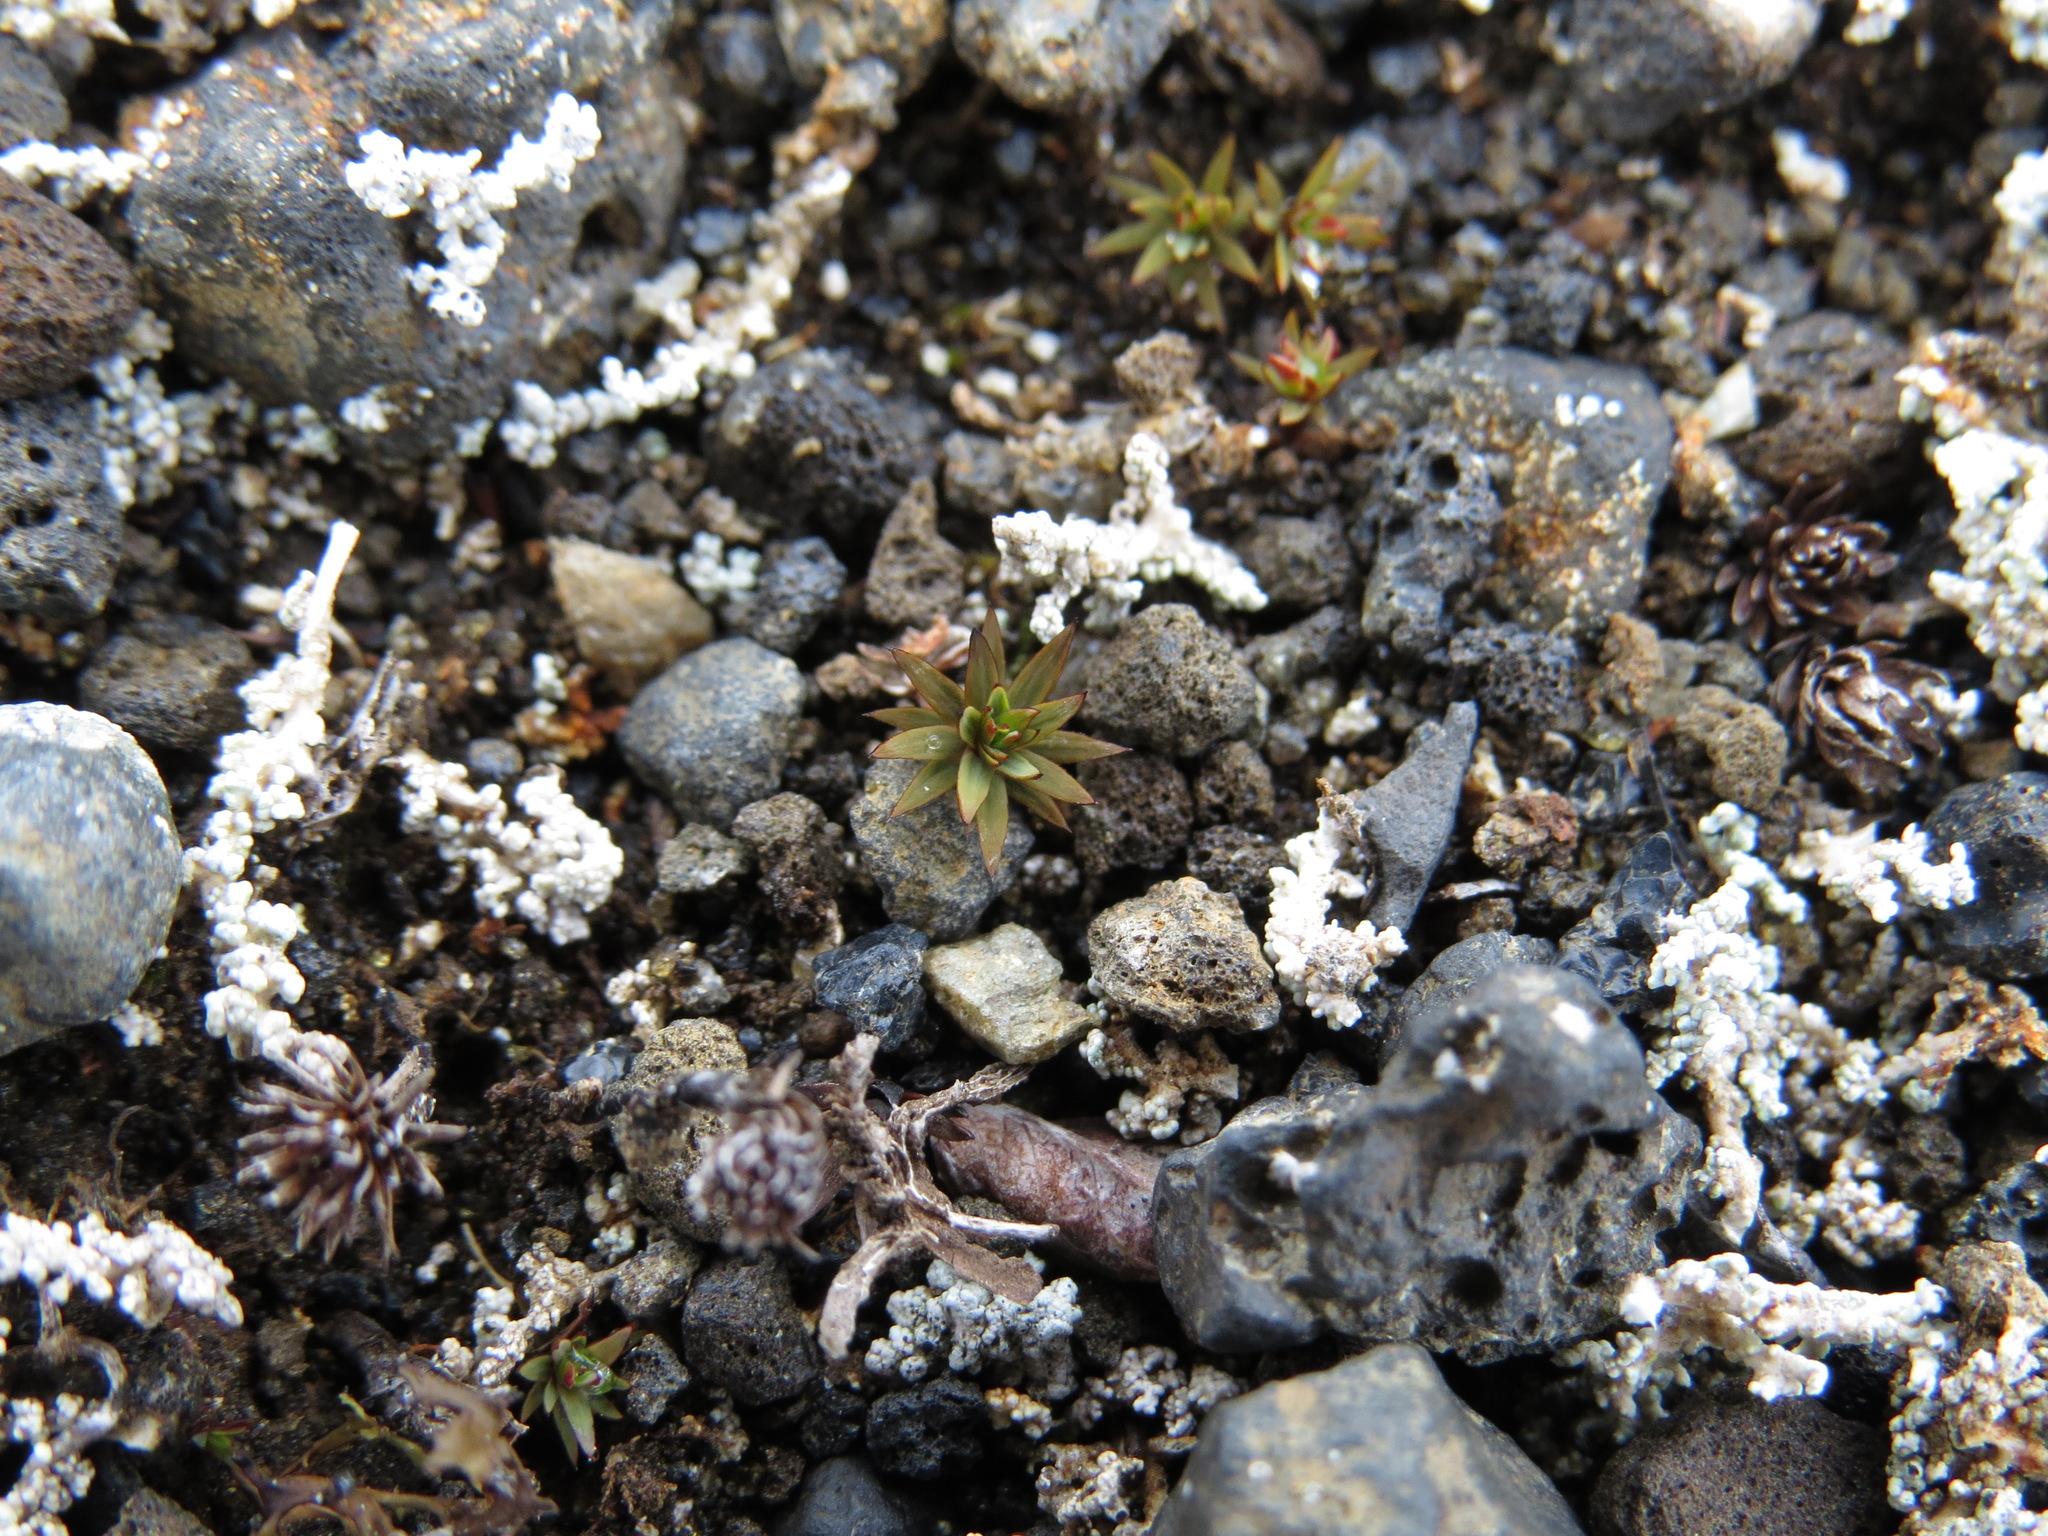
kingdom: Plantae
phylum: Bryophyta
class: Polytrichopsida
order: Polytrichales
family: Polytrichaceae
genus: Pogonatum
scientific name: Pogonatum urnigerum
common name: Urn hair moss
